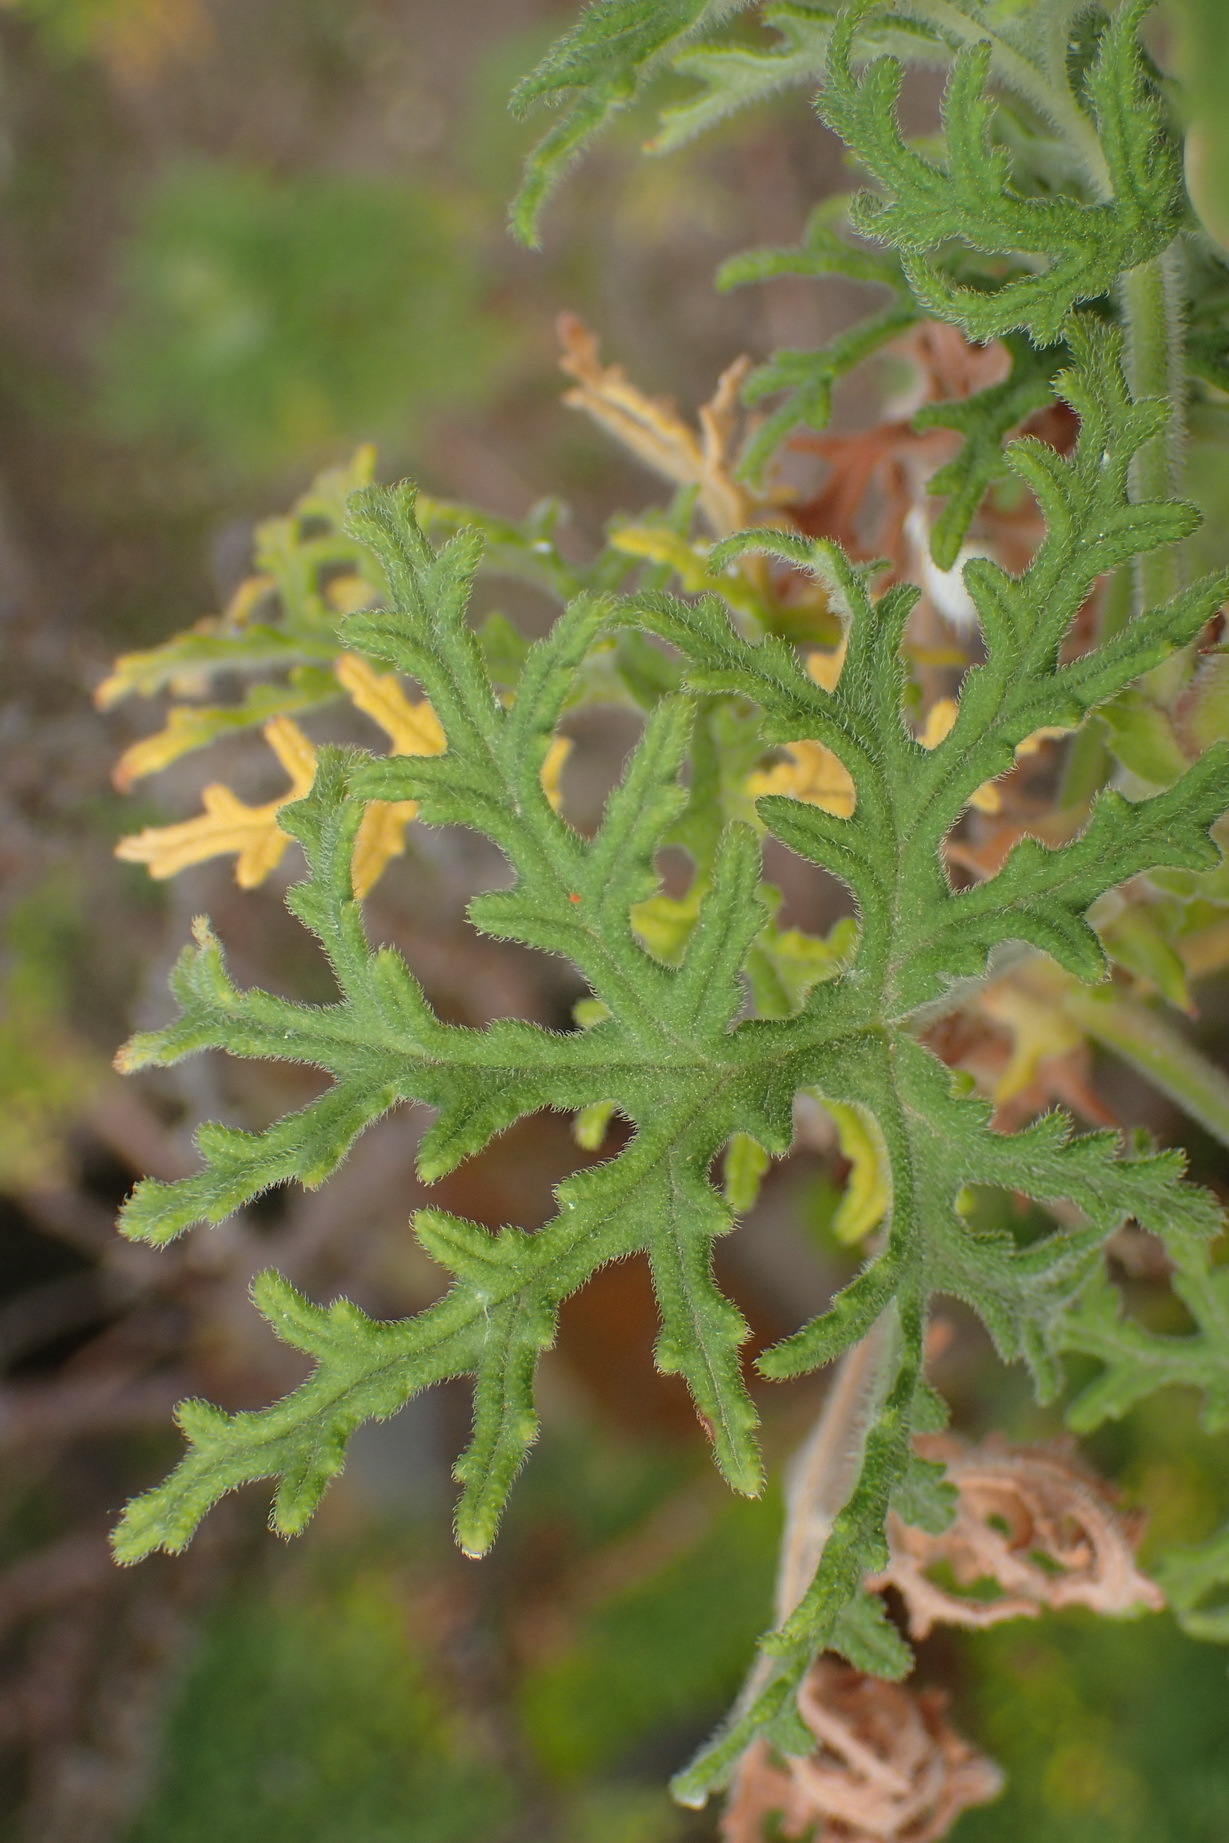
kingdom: Plantae
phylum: Tracheophyta
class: Magnoliopsida
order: Geraniales
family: Geraniaceae
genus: Pelargonium
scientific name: Pelargonium radens
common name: Rasp-leaf pelargonium
